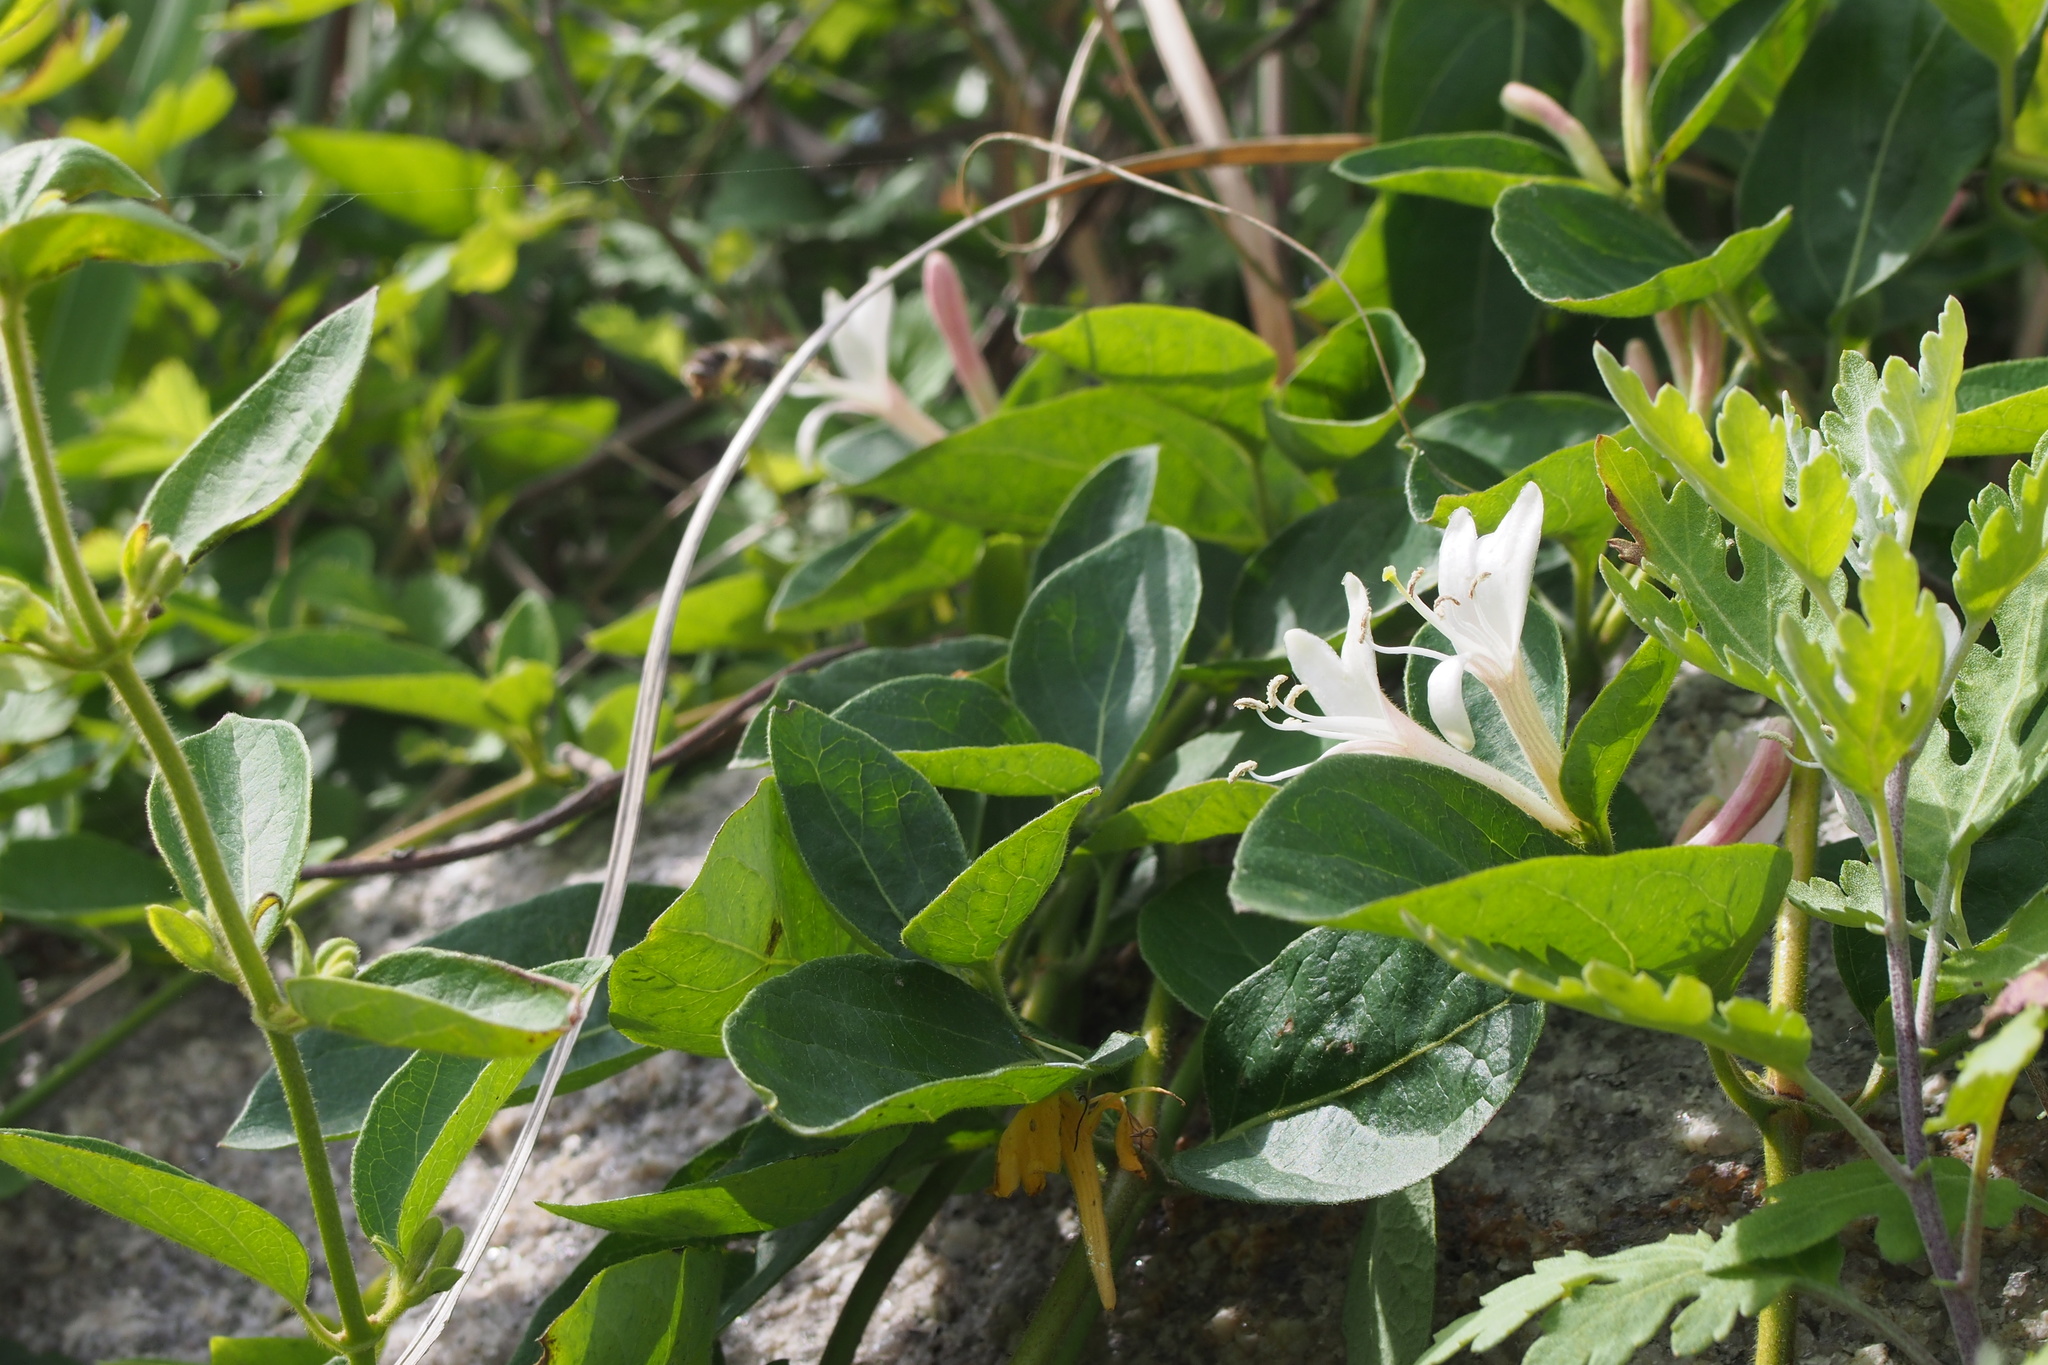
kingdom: Plantae
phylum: Tracheophyta
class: Magnoliopsida
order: Dipsacales
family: Caprifoliaceae
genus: Lonicera
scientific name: Lonicera japonica
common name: Japanese honeysuckle
